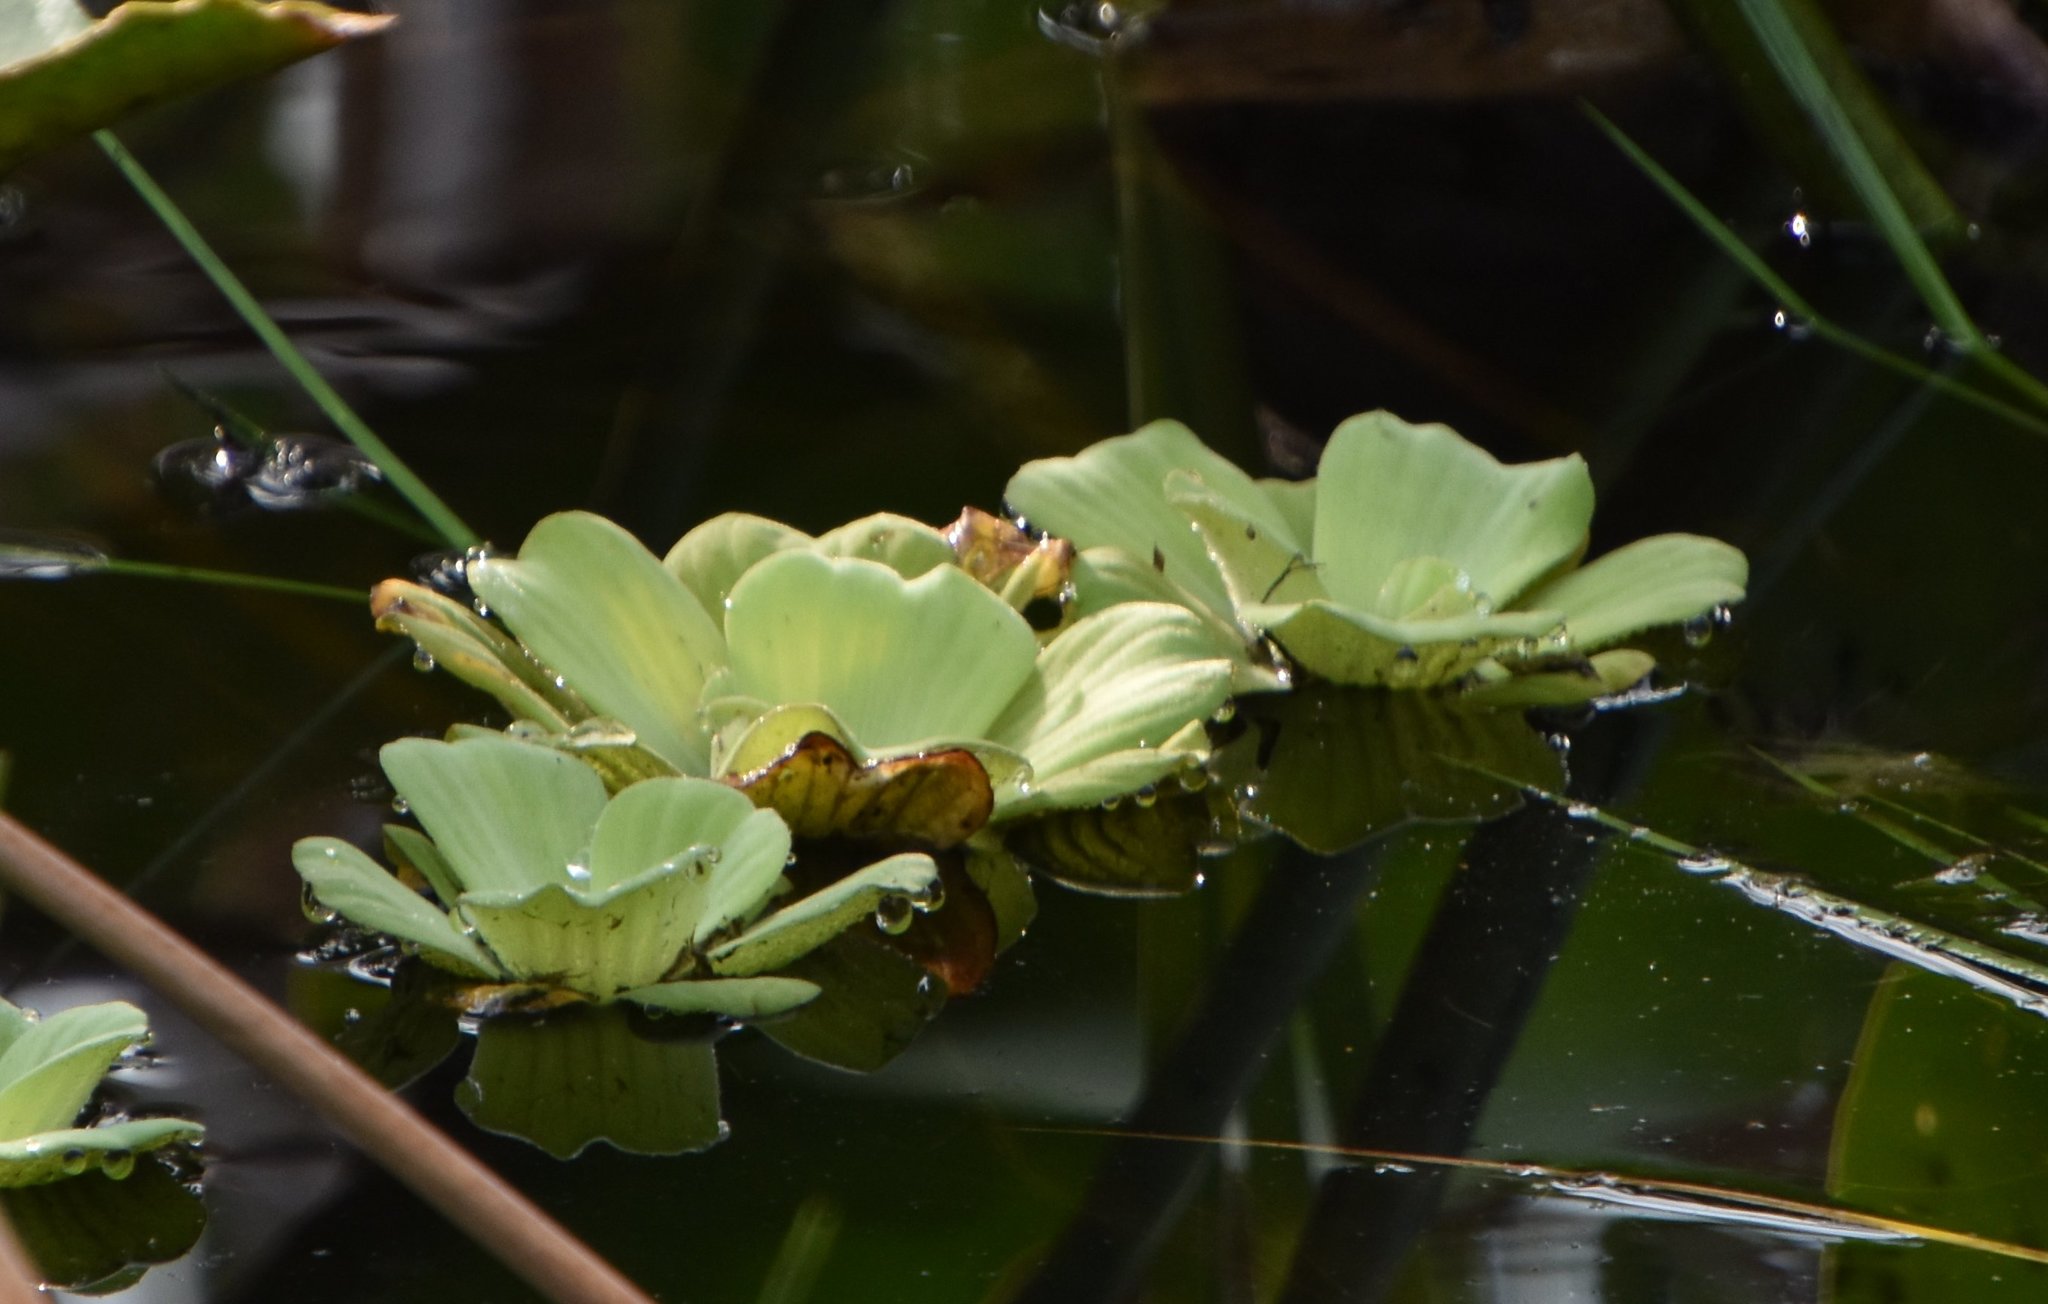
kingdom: Plantae
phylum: Tracheophyta
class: Liliopsida
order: Alismatales
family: Araceae
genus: Pistia
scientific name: Pistia stratiotes
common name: Water lettuce
